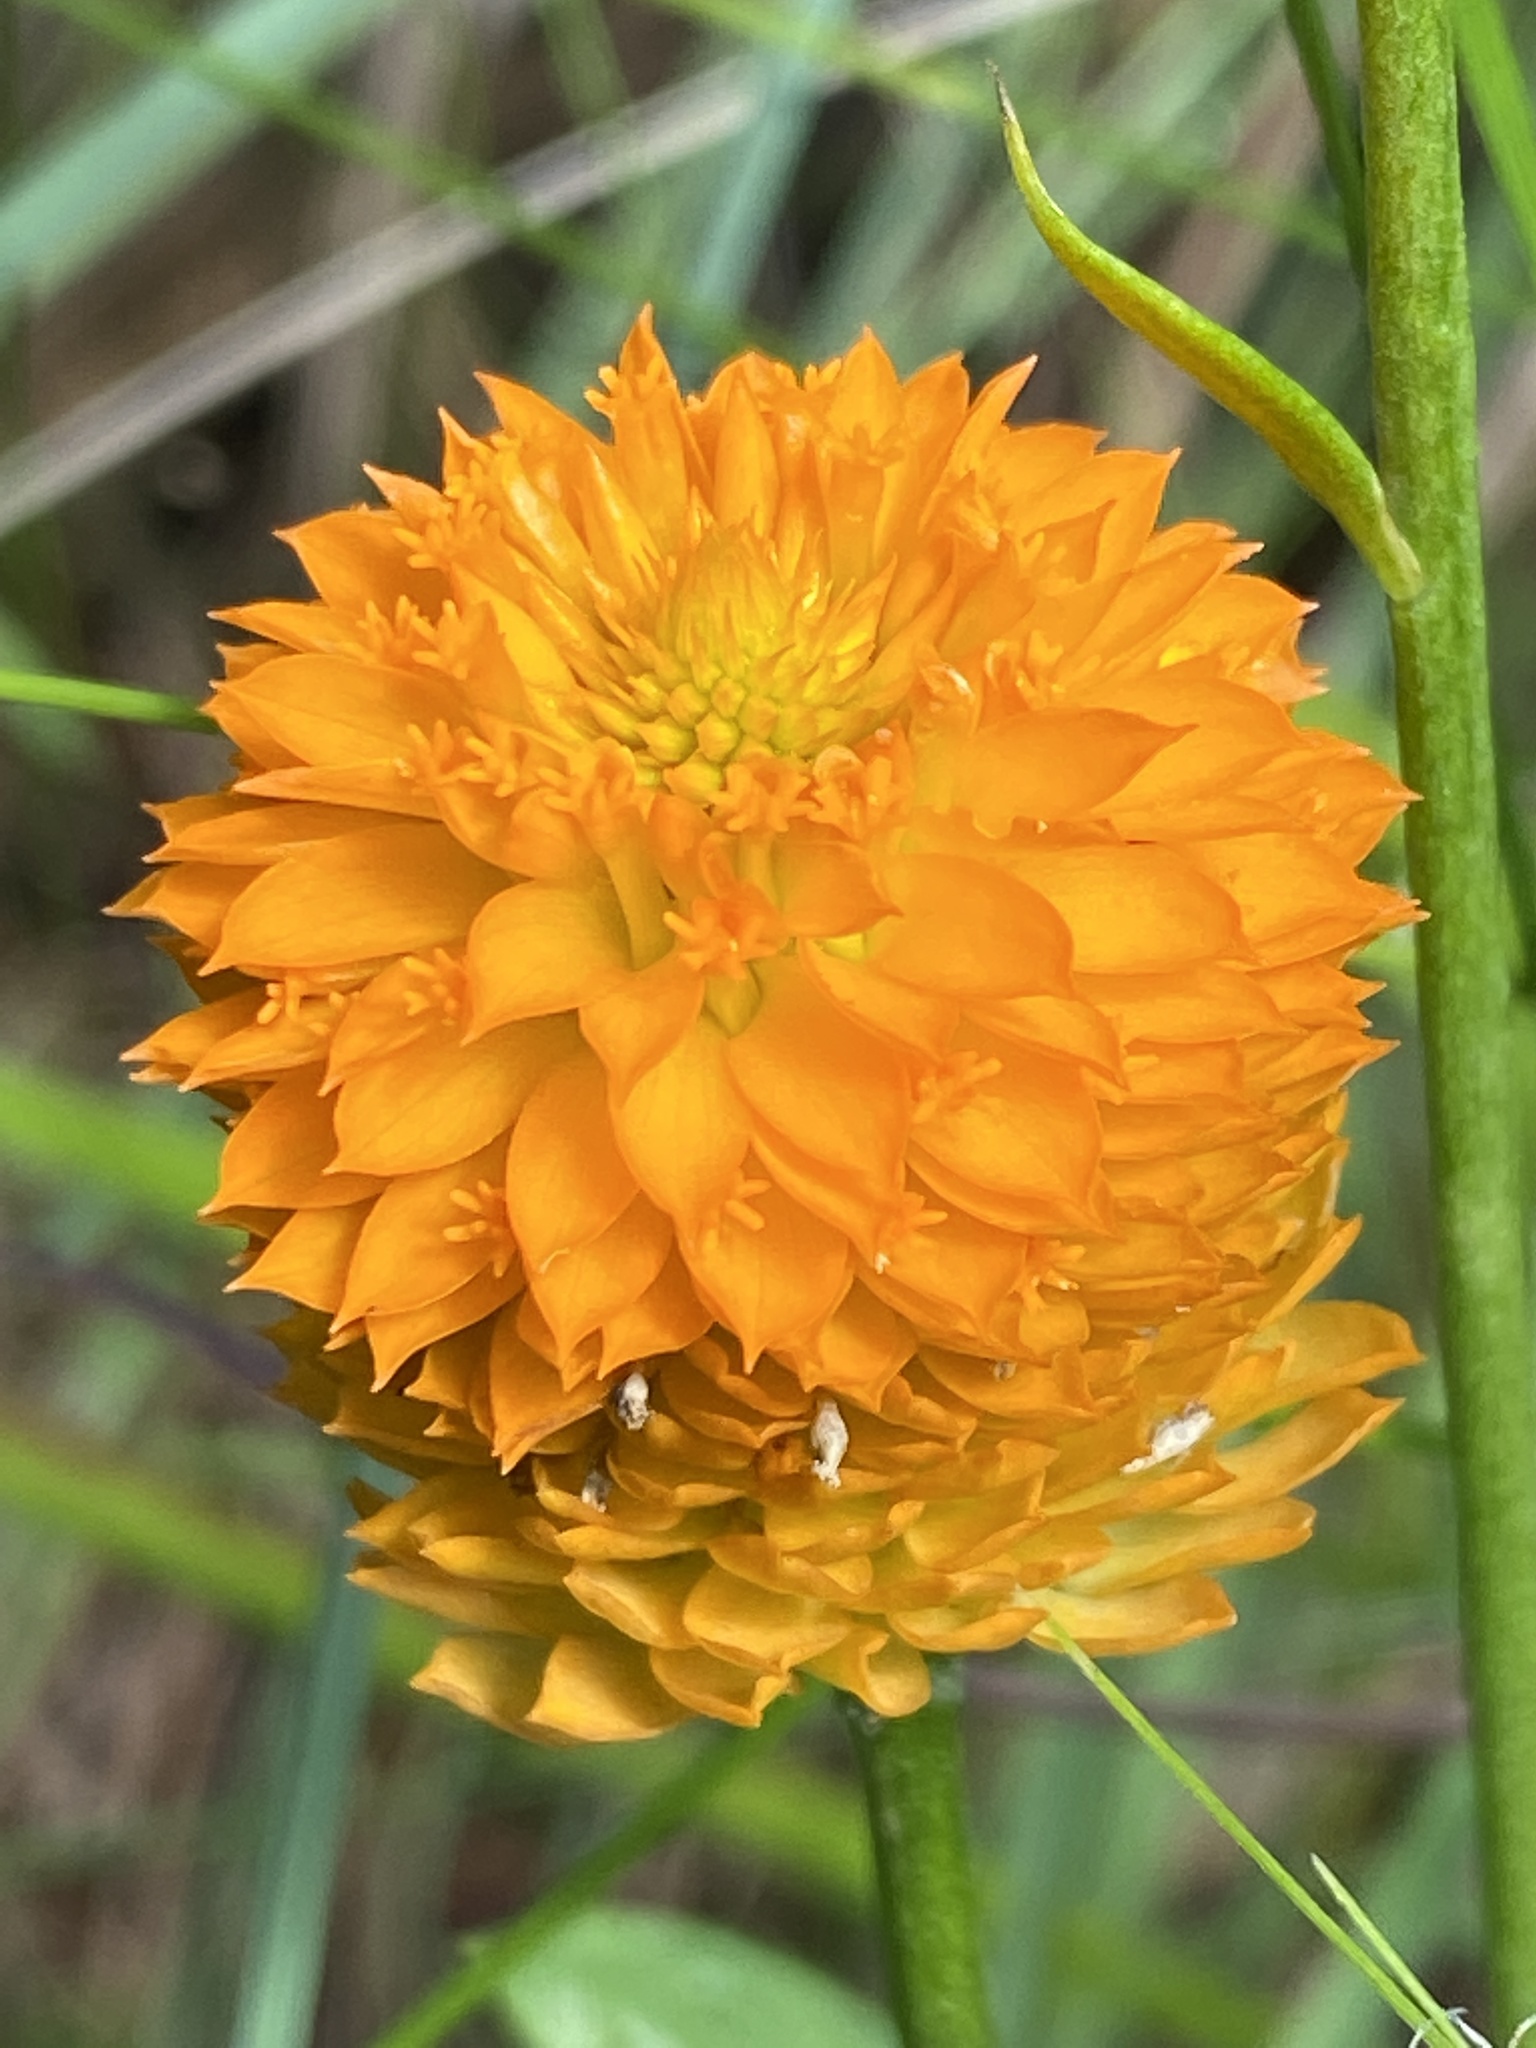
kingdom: Plantae
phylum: Tracheophyta
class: Magnoliopsida
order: Fabales
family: Polygalaceae
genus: Polygala
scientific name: Polygala lutea
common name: Orange milkwort
